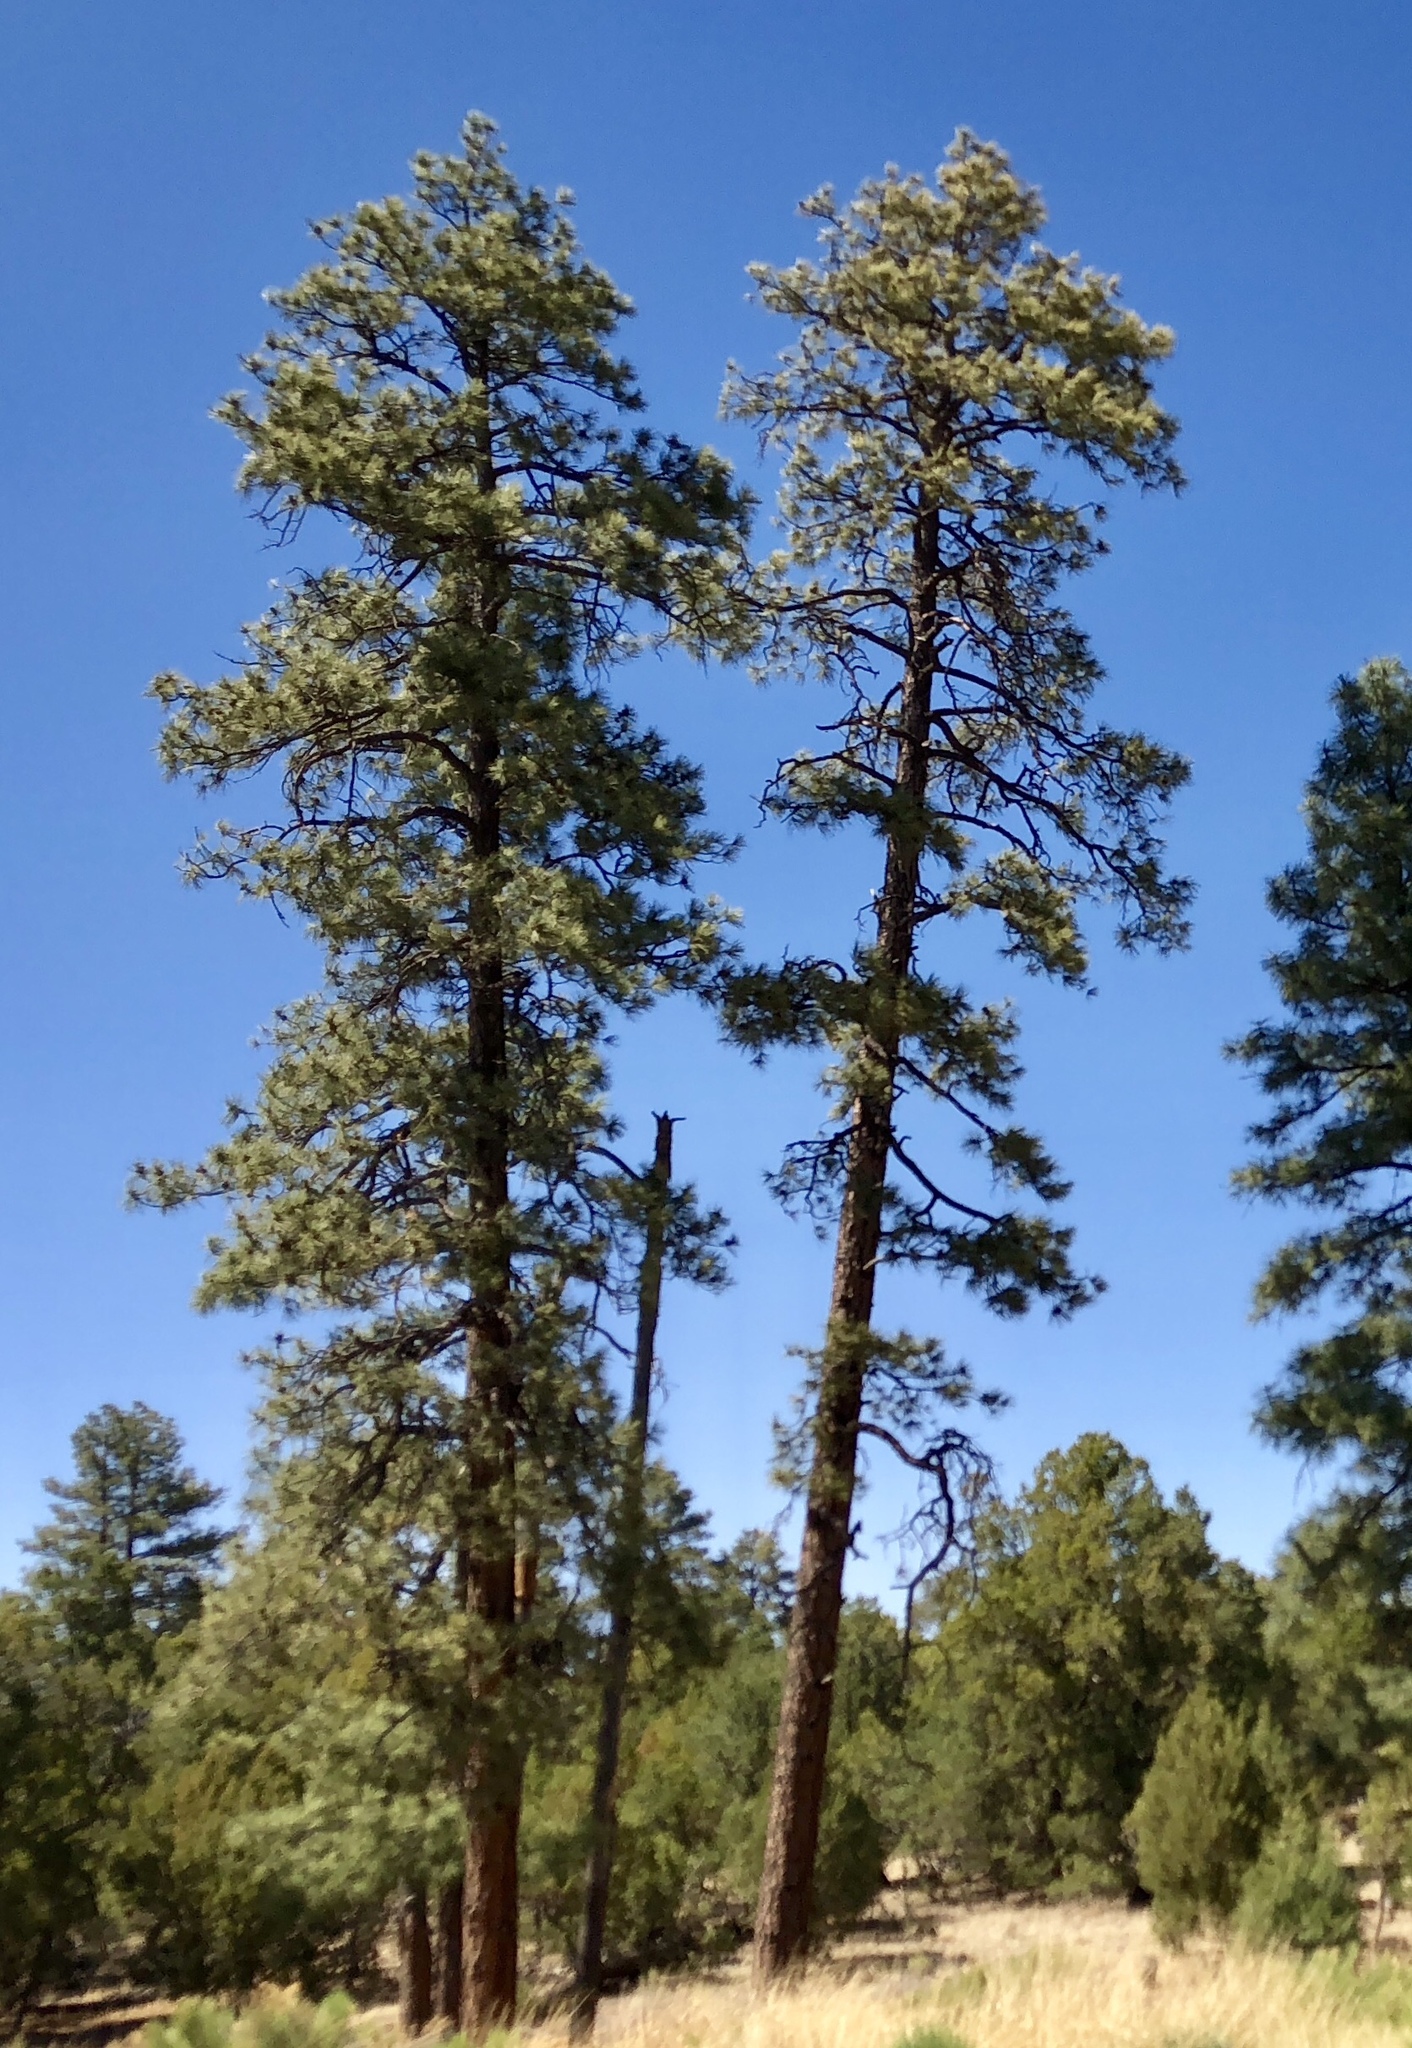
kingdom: Plantae
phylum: Tracheophyta
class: Pinopsida
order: Pinales
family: Pinaceae
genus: Pinus
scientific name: Pinus ponderosa
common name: Western yellow-pine
